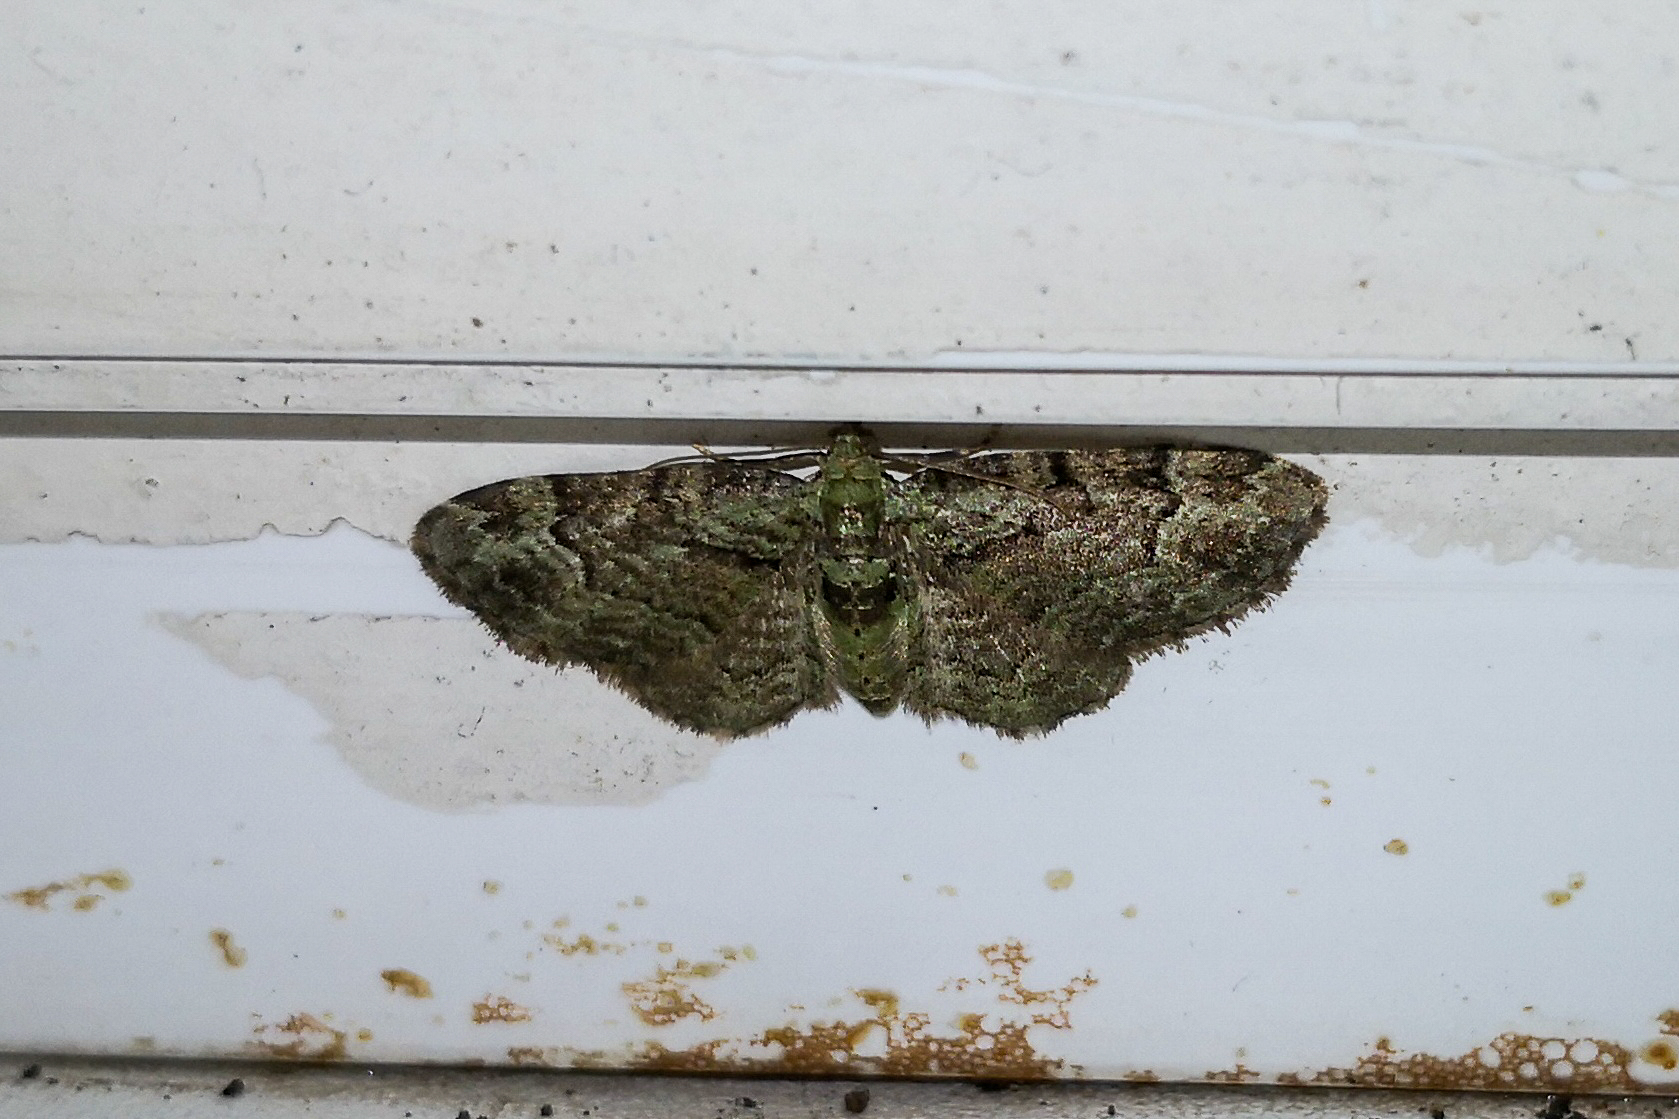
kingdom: Animalia
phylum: Arthropoda
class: Insecta
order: Lepidoptera
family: Geometridae
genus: Pasiphila
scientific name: Pasiphila rectangulata
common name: Green pug
